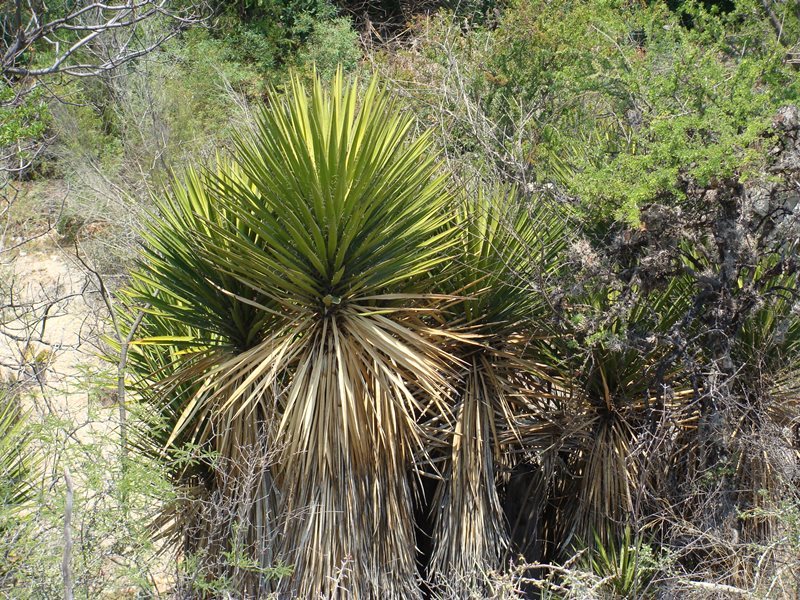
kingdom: Plantae
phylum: Tracheophyta
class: Liliopsida
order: Asparagales
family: Asparagaceae
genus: Yucca
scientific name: Yucca periculosa
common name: Izote yucca
